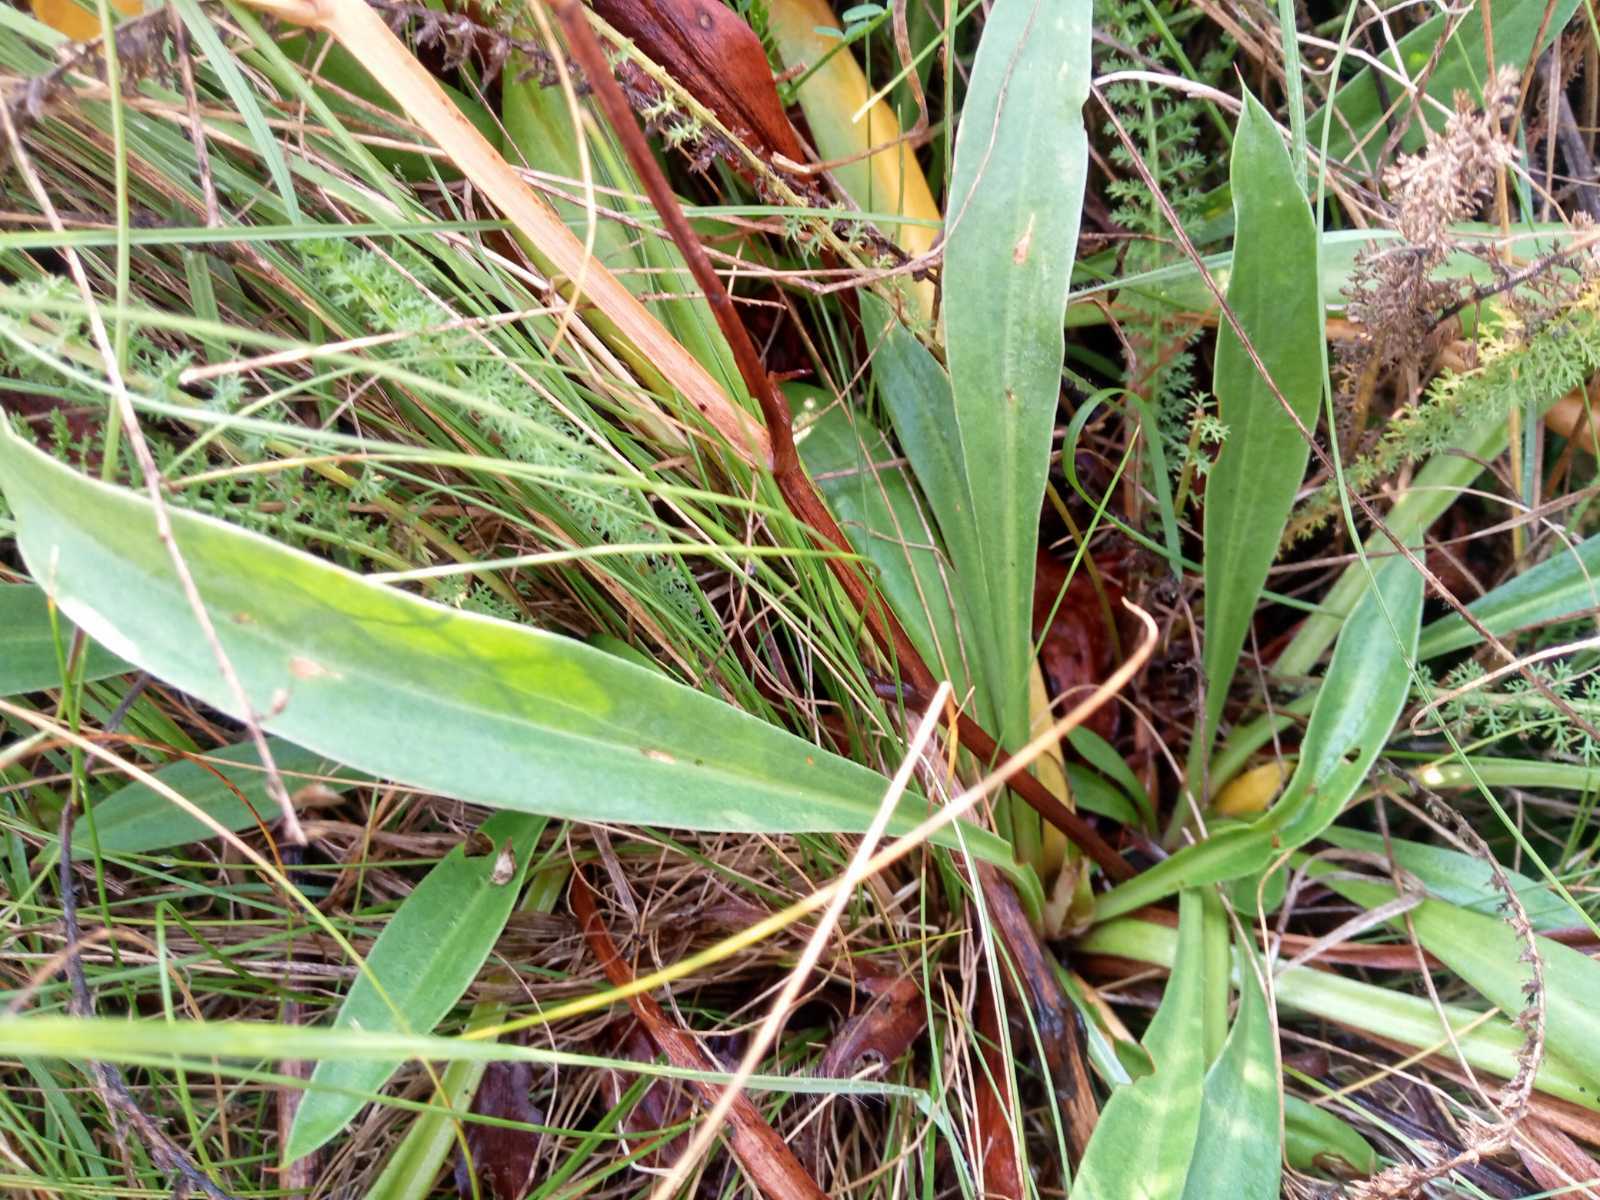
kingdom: Plantae
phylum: Tracheophyta
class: Magnoliopsida
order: Caryophyllales
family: Plumbaginaceae
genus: Goniolimon
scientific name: Goniolimon tataricum
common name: Statice
